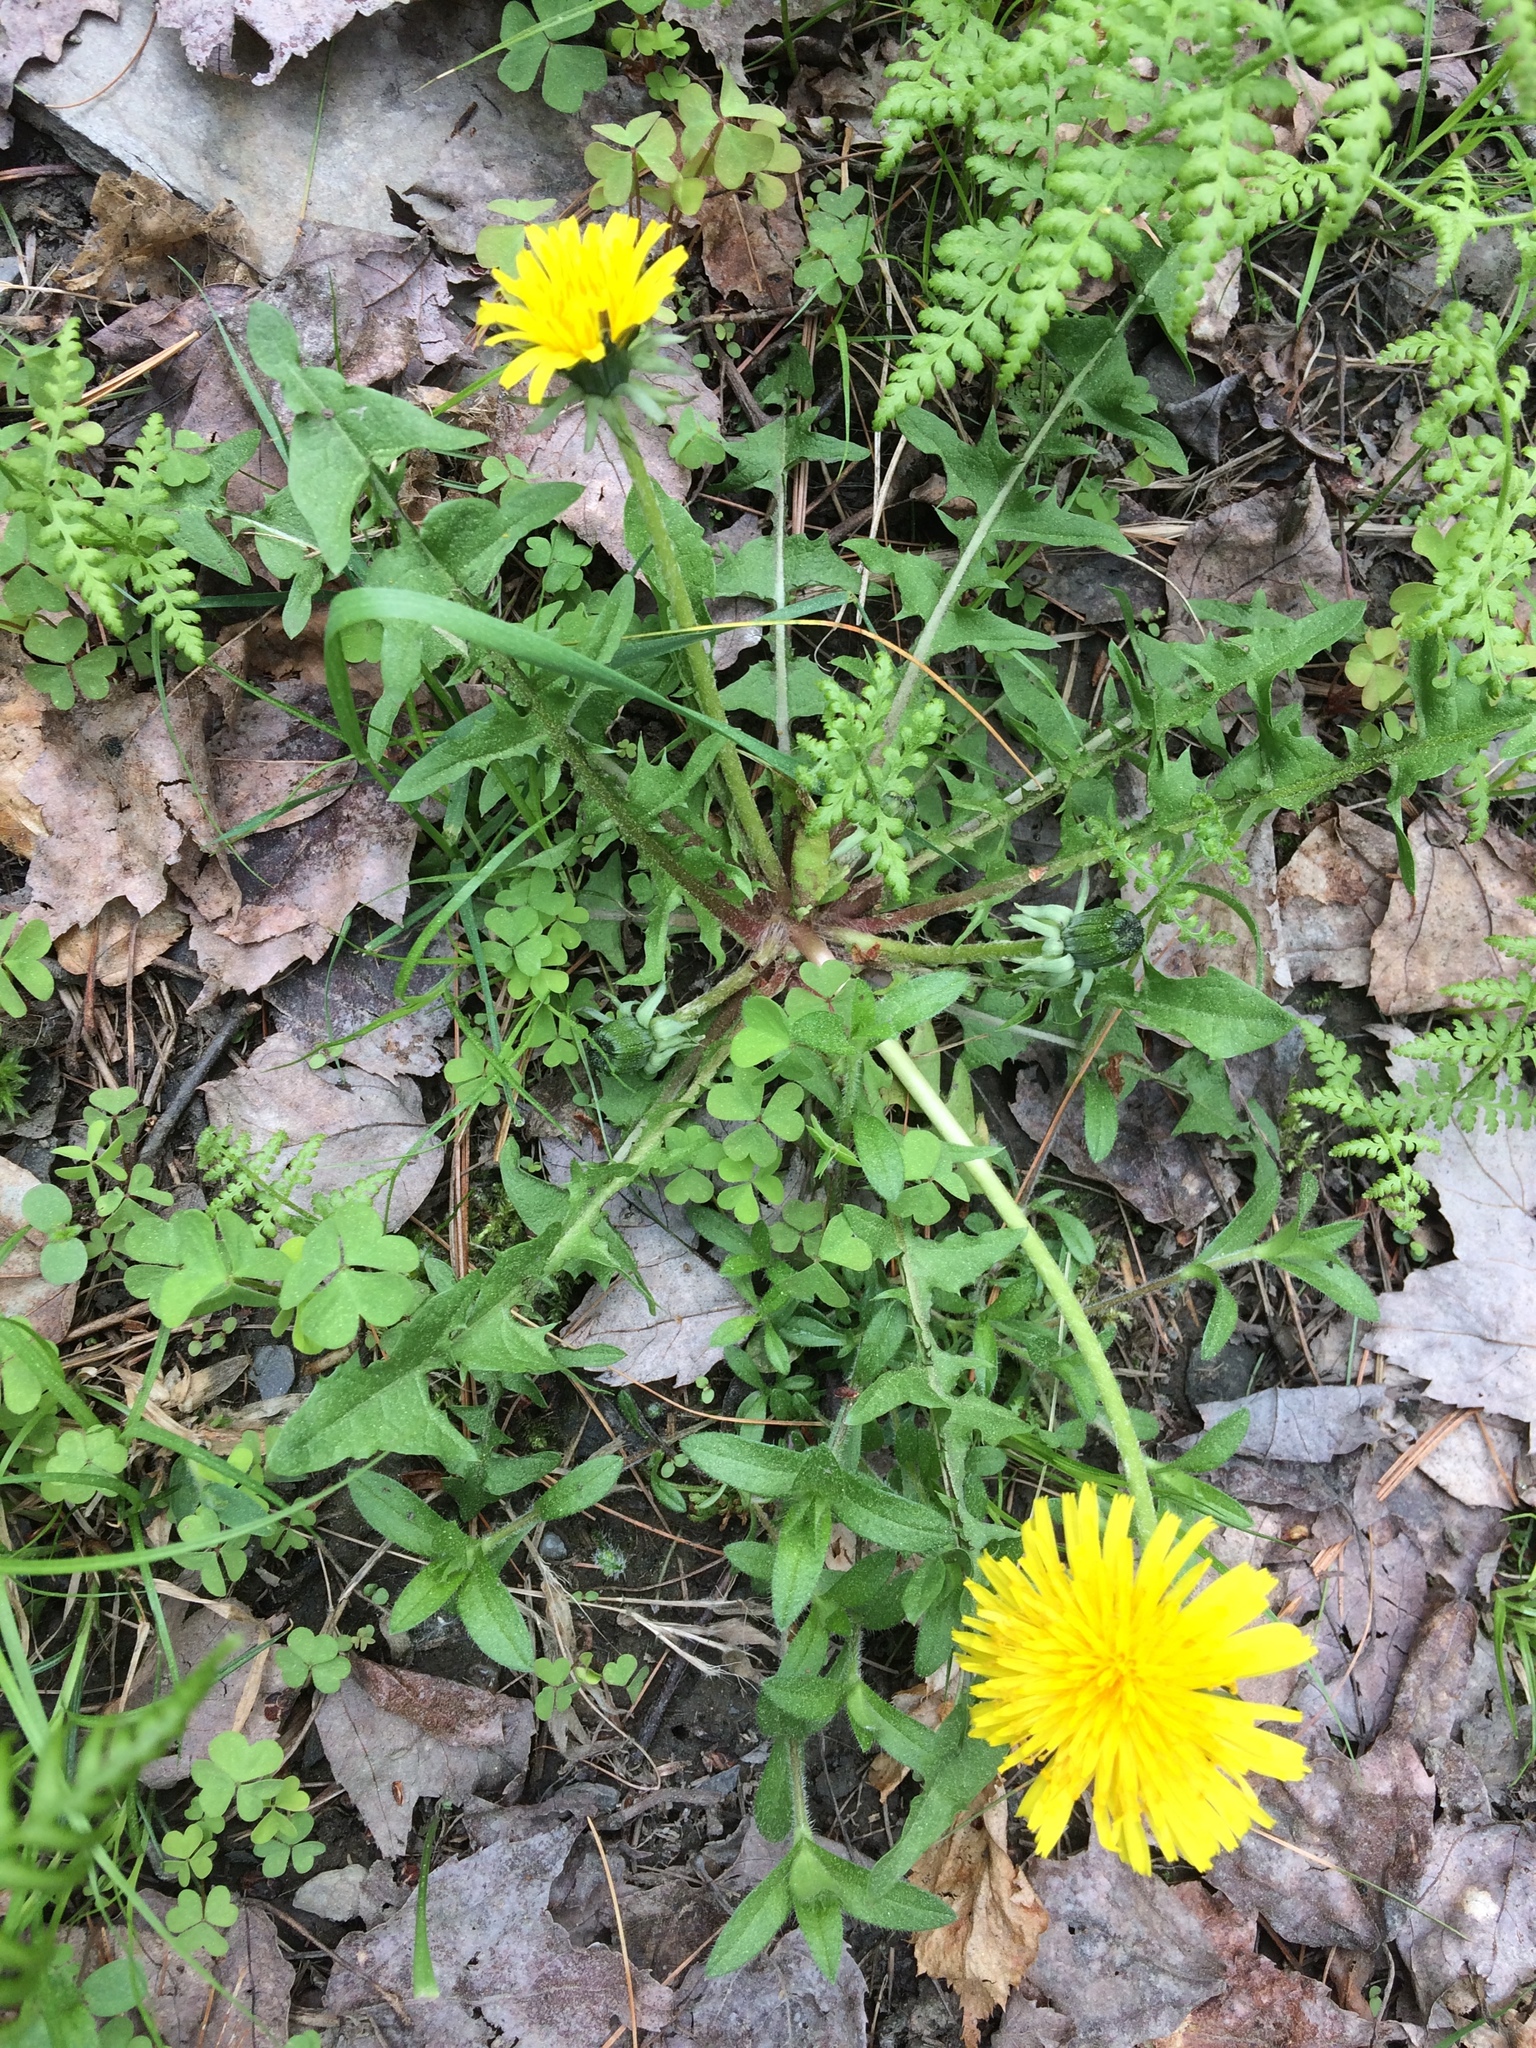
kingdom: Plantae
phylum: Tracheophyta
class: Magnoliopsida
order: Asterales
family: Asteraceae
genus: Taraxacum
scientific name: Taraxacum officinale
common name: Common dandelion
